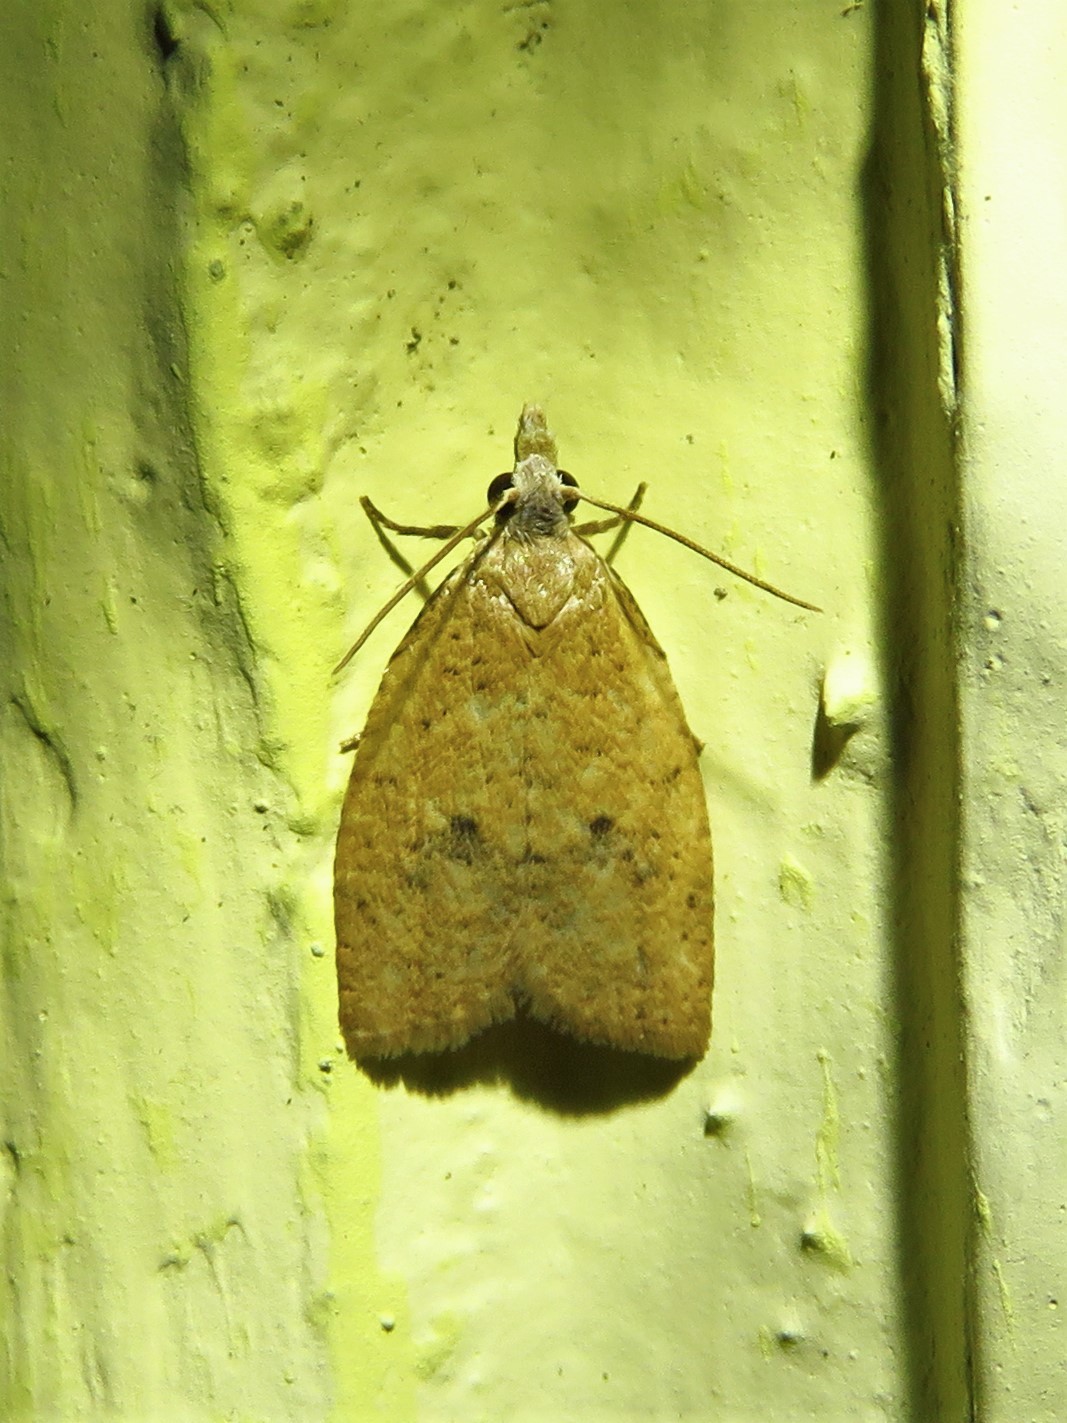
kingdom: Animalia
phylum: Arthropoda
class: Insecta
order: Lepidoptera
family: Tortricidae
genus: Sparganothoides
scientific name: Sparganothoides lentiginosana
